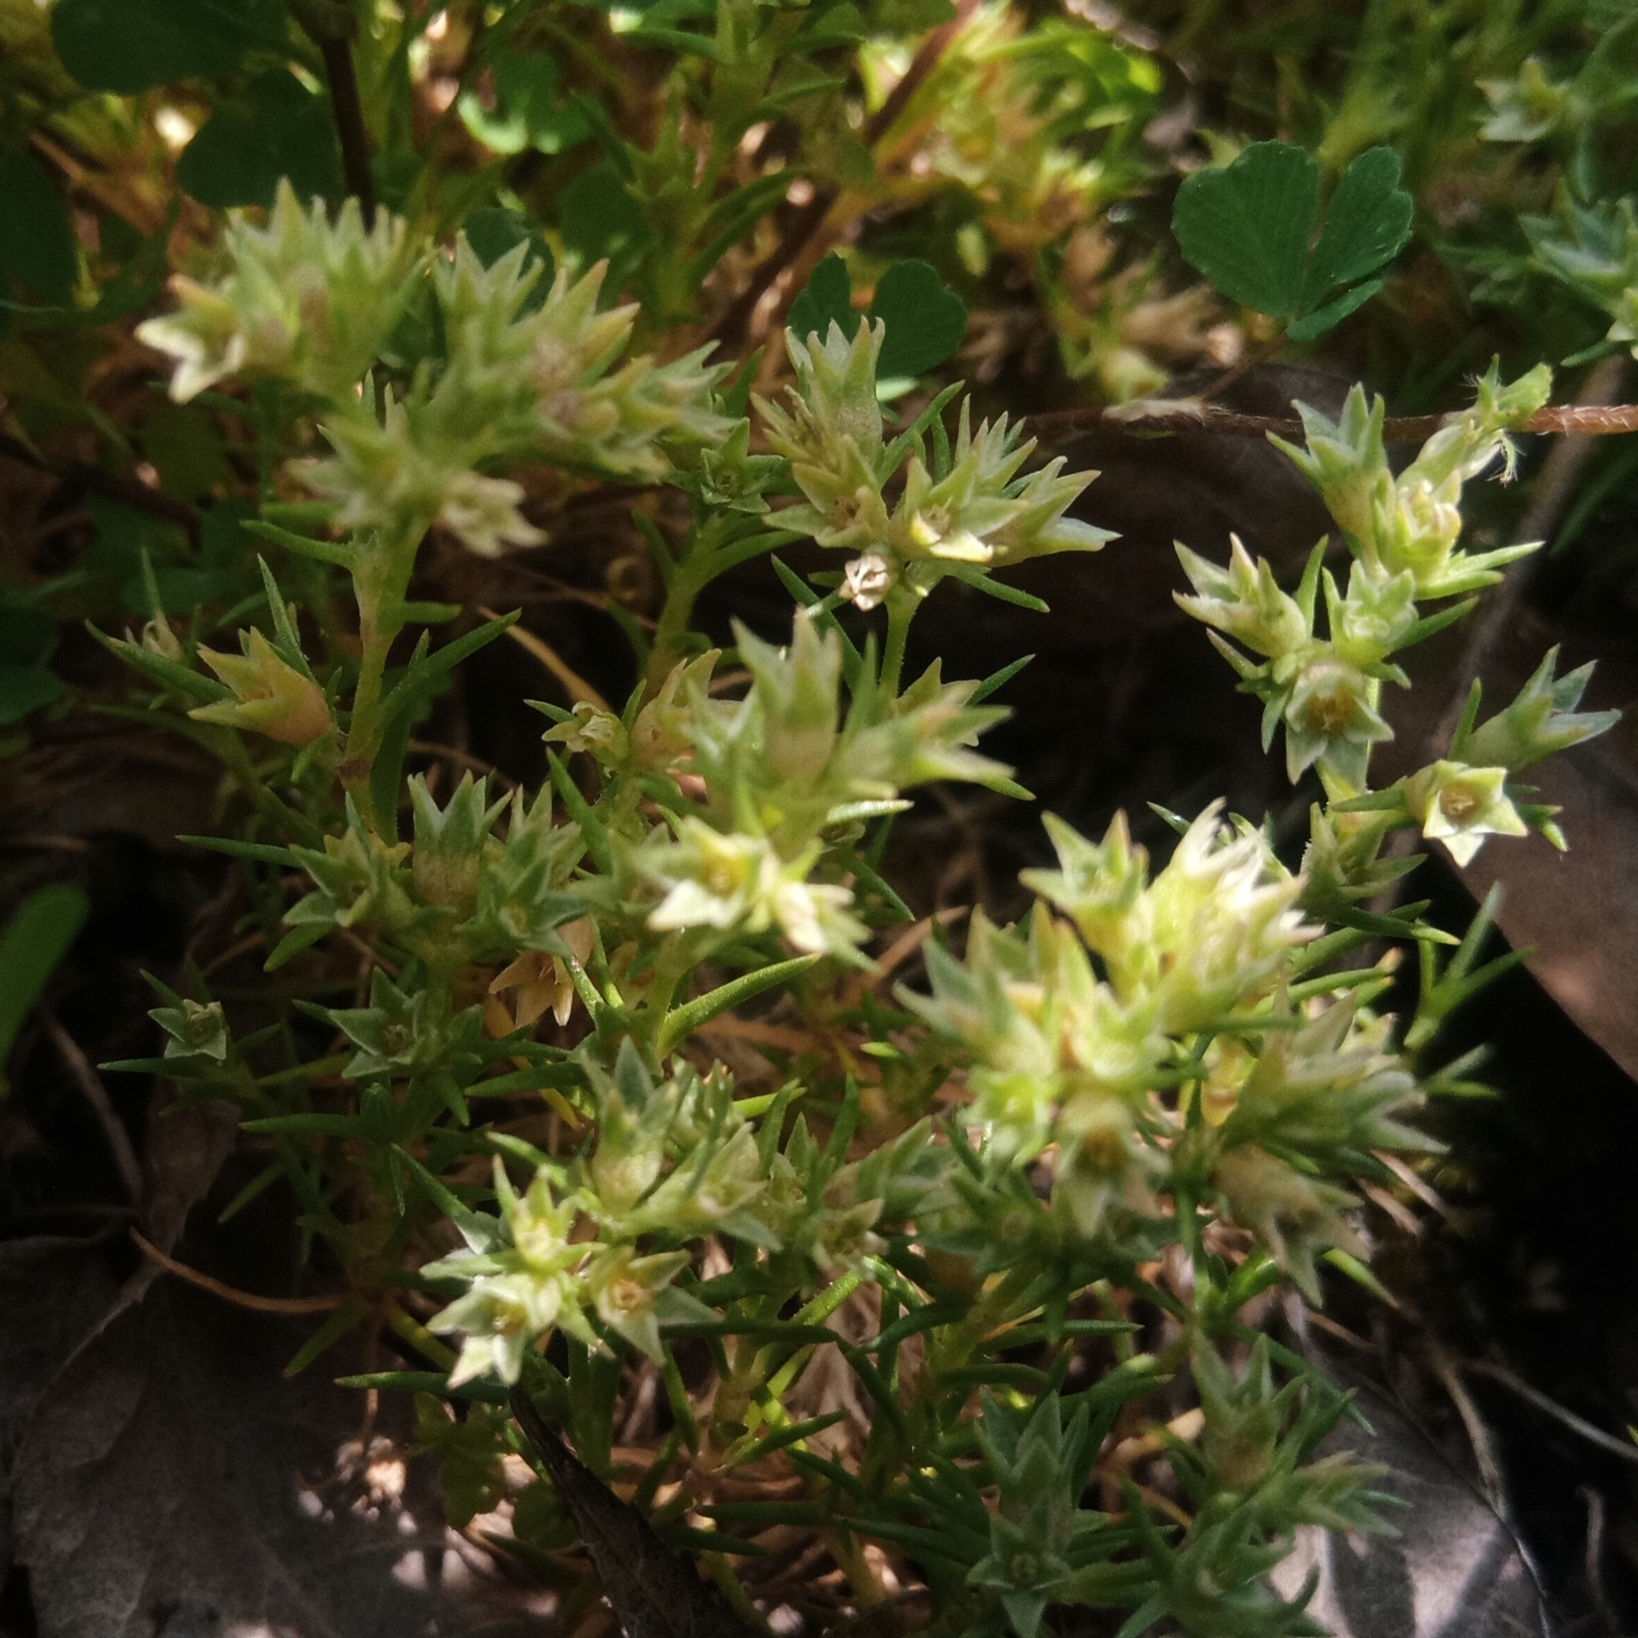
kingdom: Plantae
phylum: Tracheophyta
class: Magnoliopsida
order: Caryophyllales
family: Caryophyllaceae
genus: Scleranthus
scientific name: Scleranthus annuus
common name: Annual knawel
